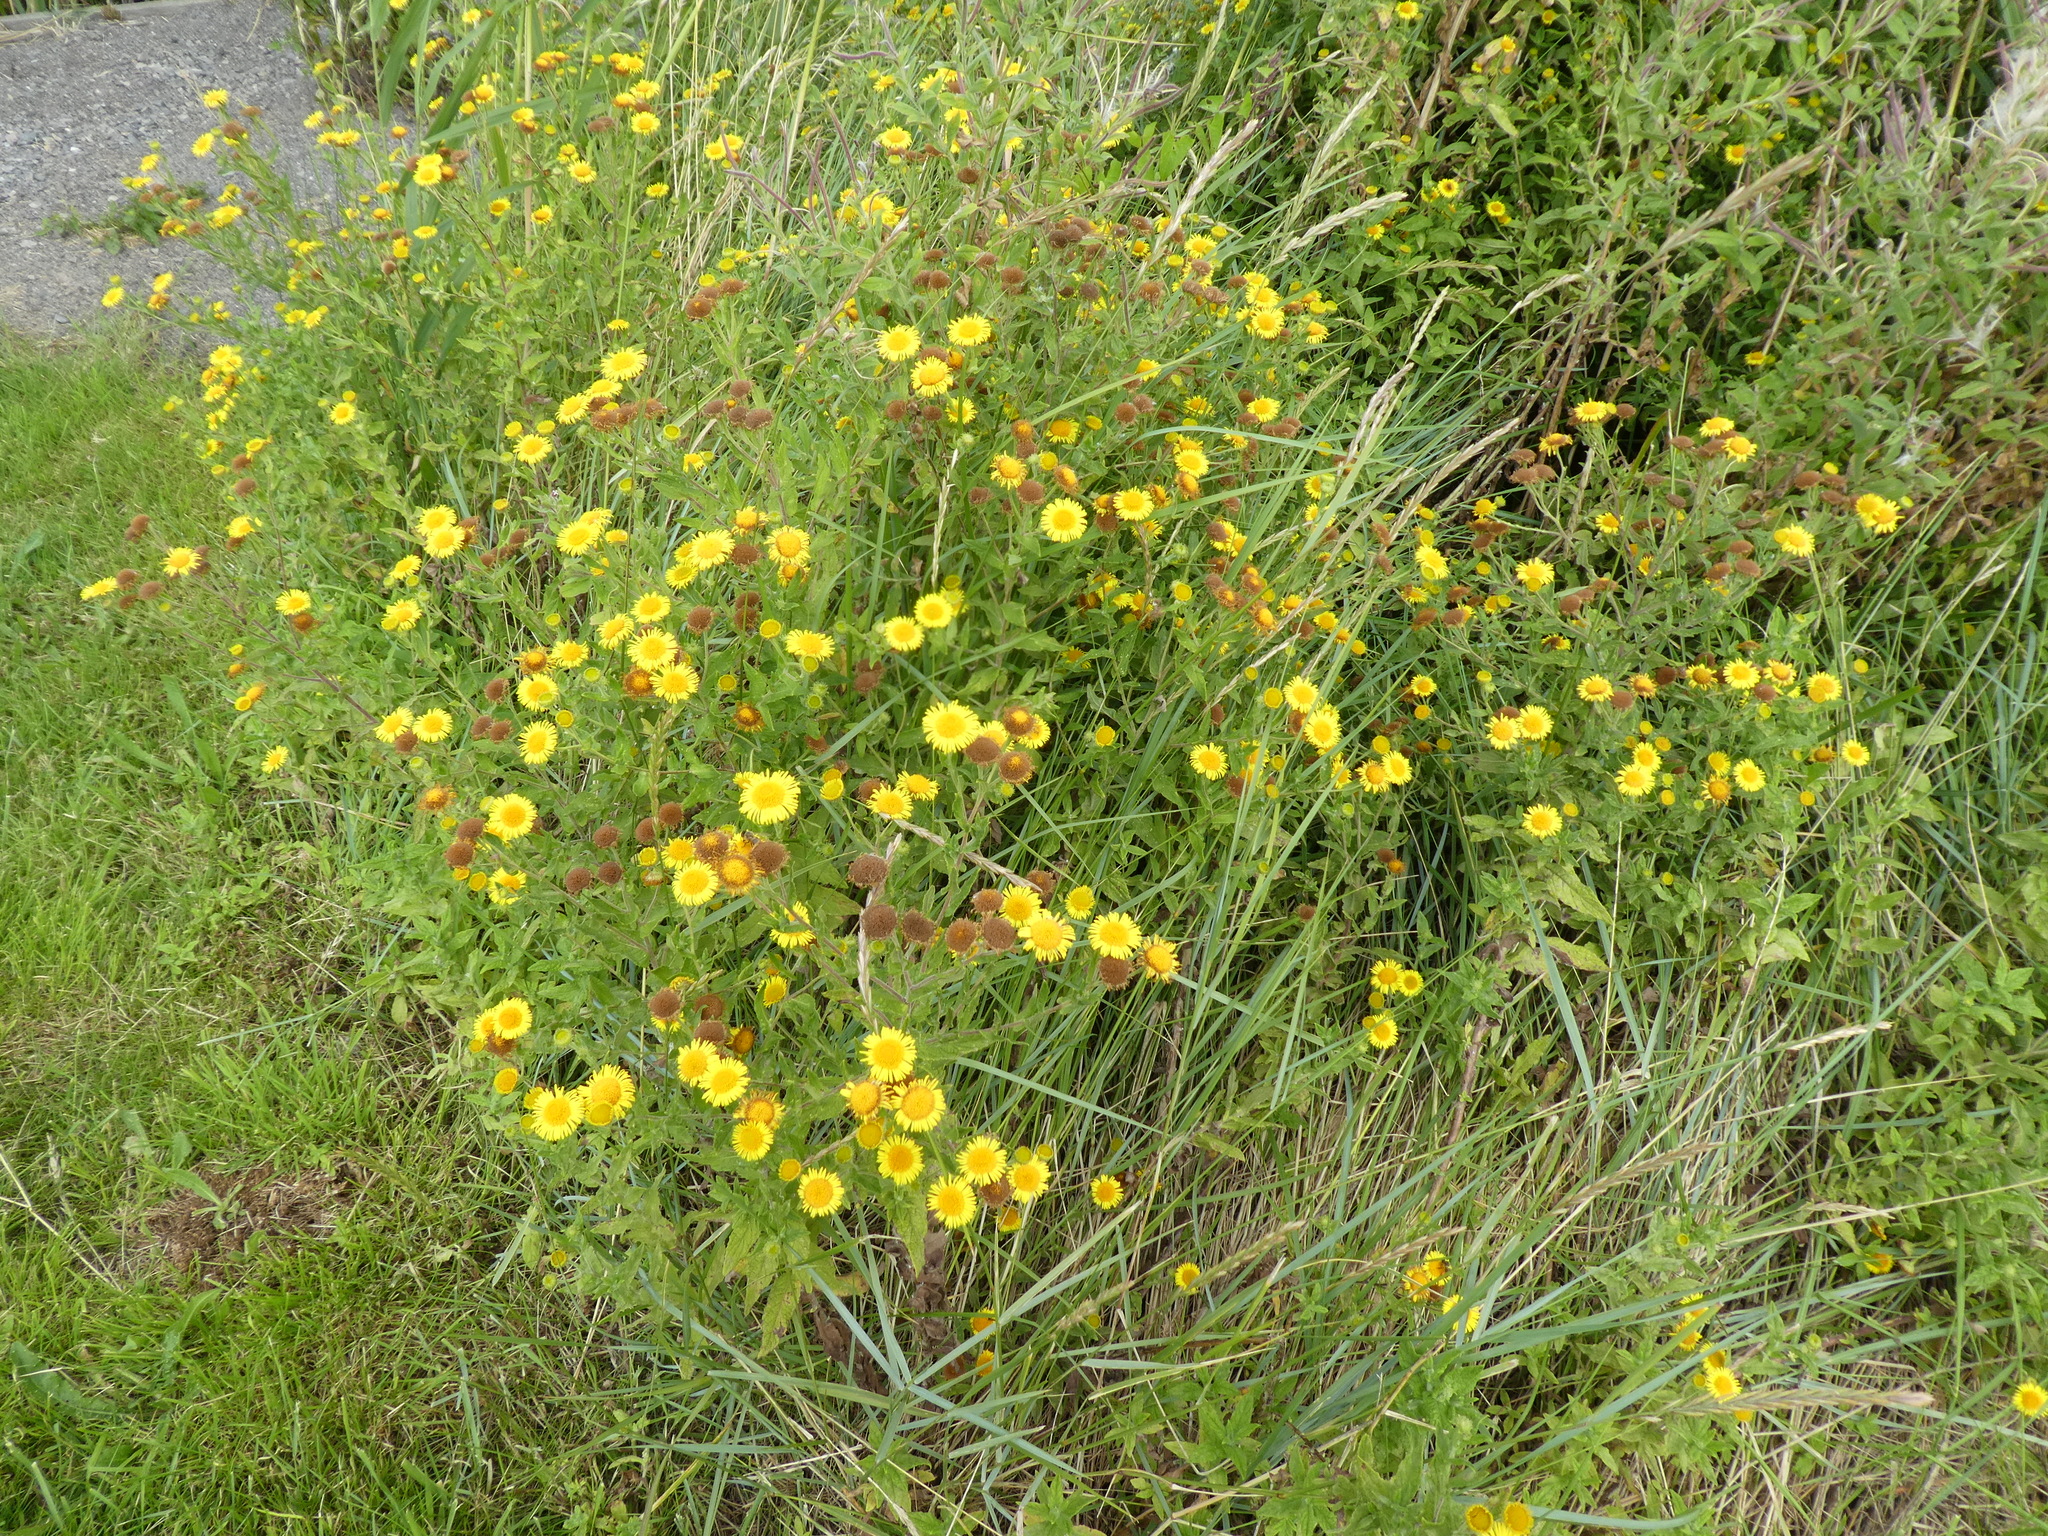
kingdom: Plantae
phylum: Tracheophyta
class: Magnoliopsida
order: Asterales
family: Asteraceae
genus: Pulicaria
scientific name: Pulicaria dysenterica
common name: Common fleabane
